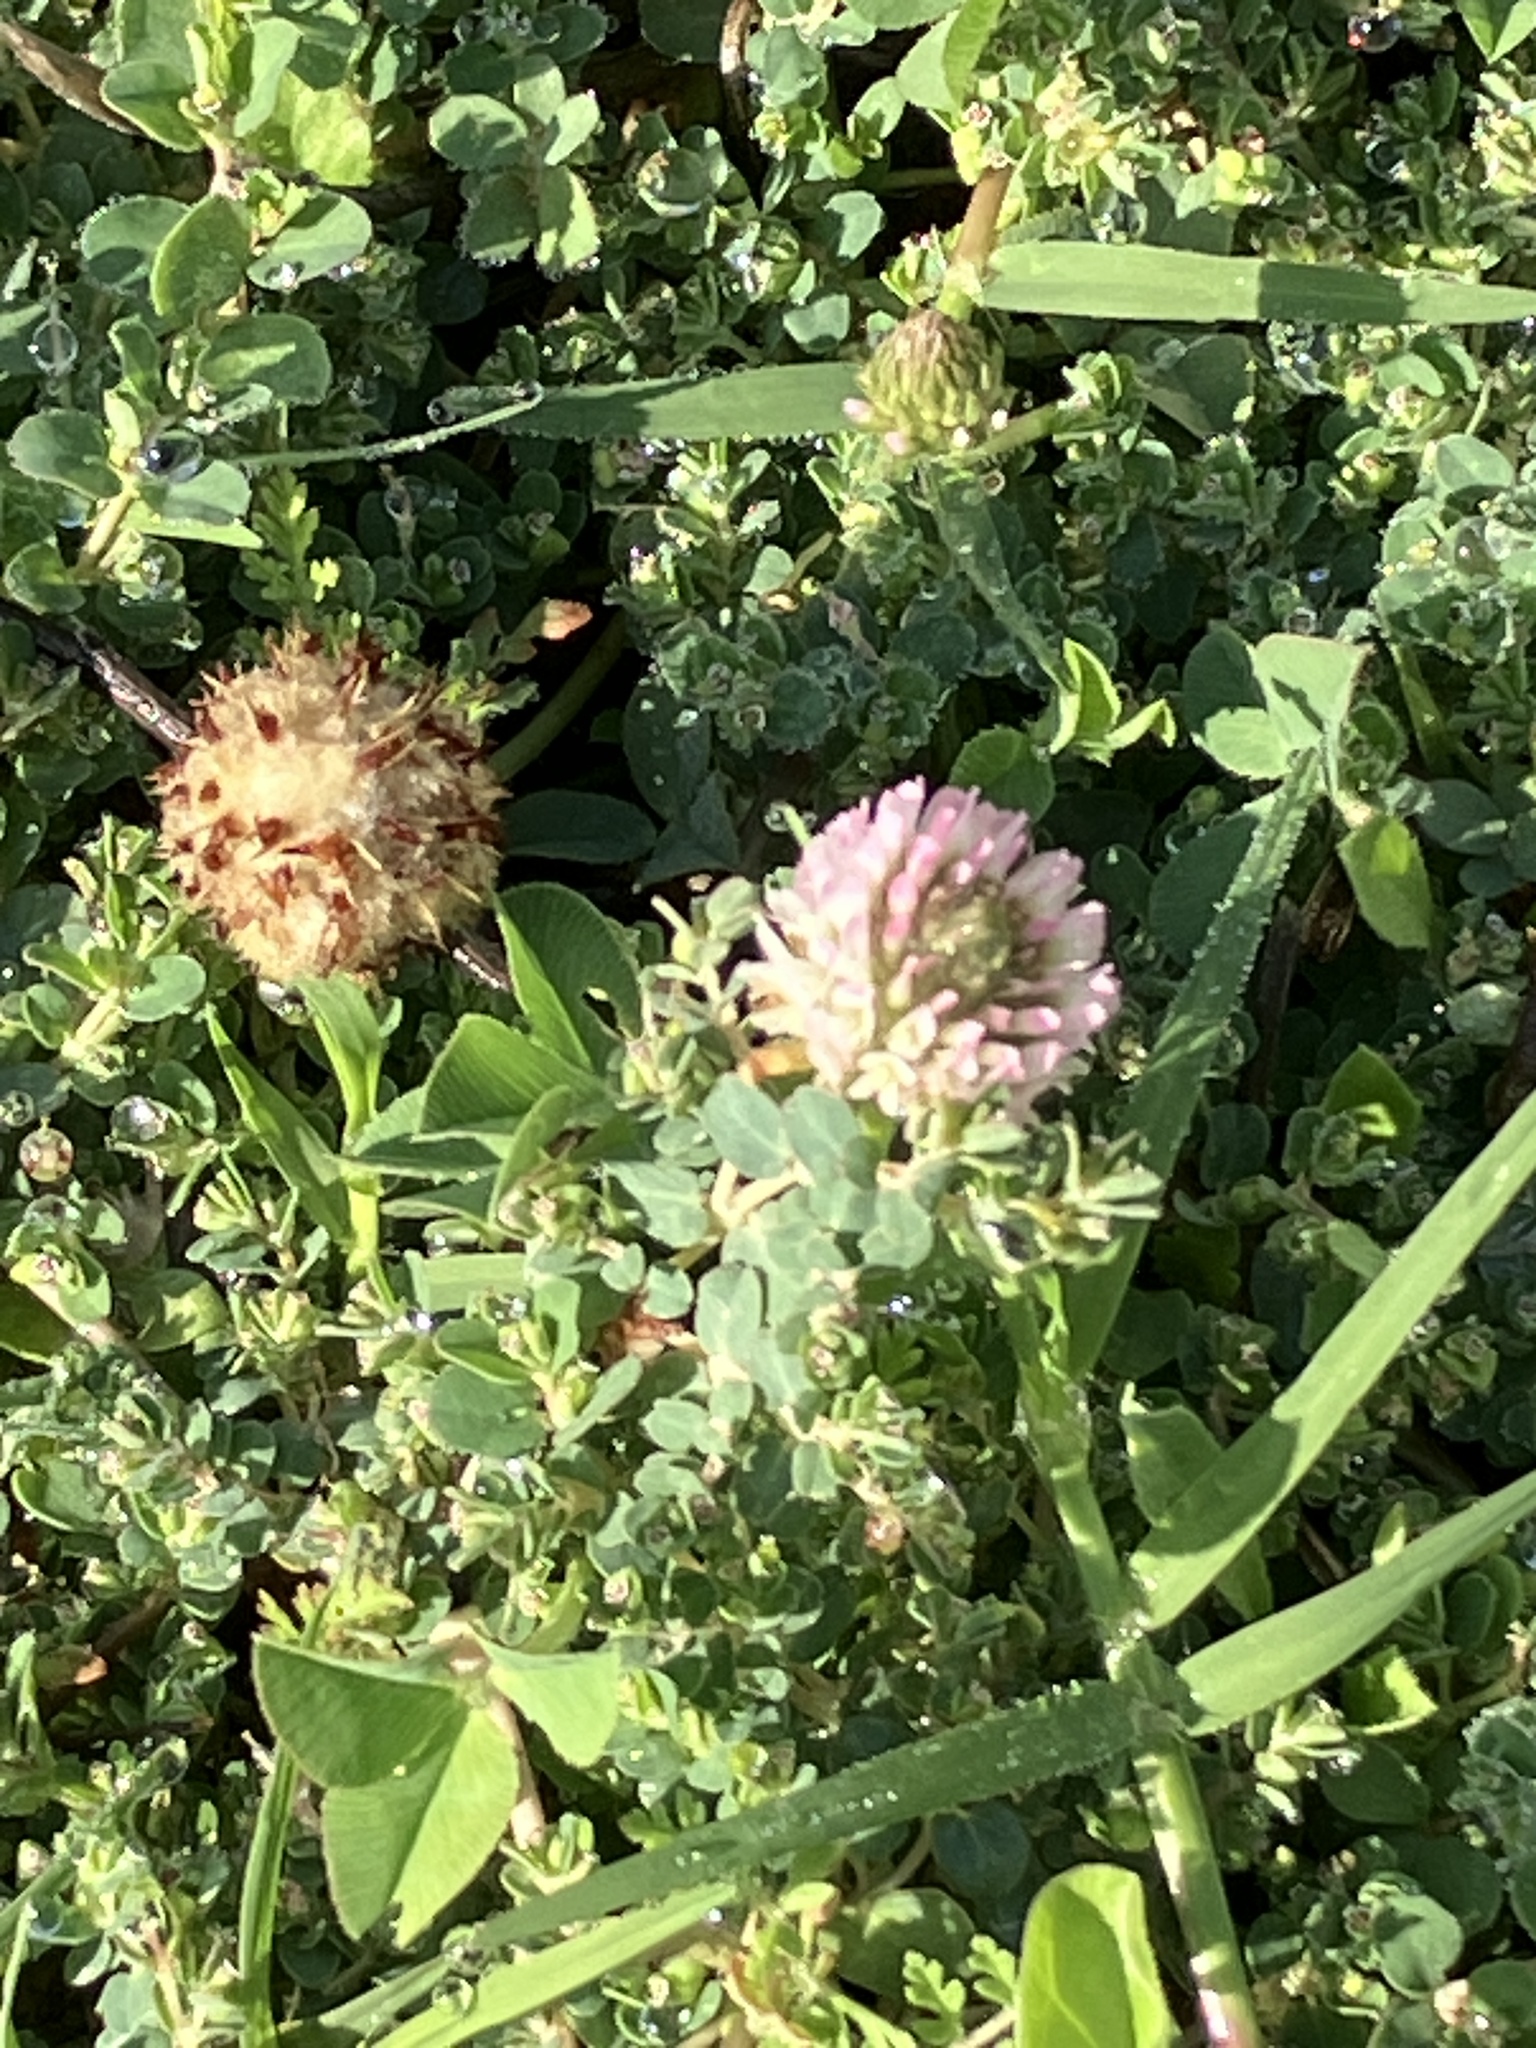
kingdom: Plantae
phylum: Tracheophyta
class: Magnoliopsida
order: Fabales
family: Fabaceae
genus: Trifolium
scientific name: Trifolium fragiferum
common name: Strawberry clover
